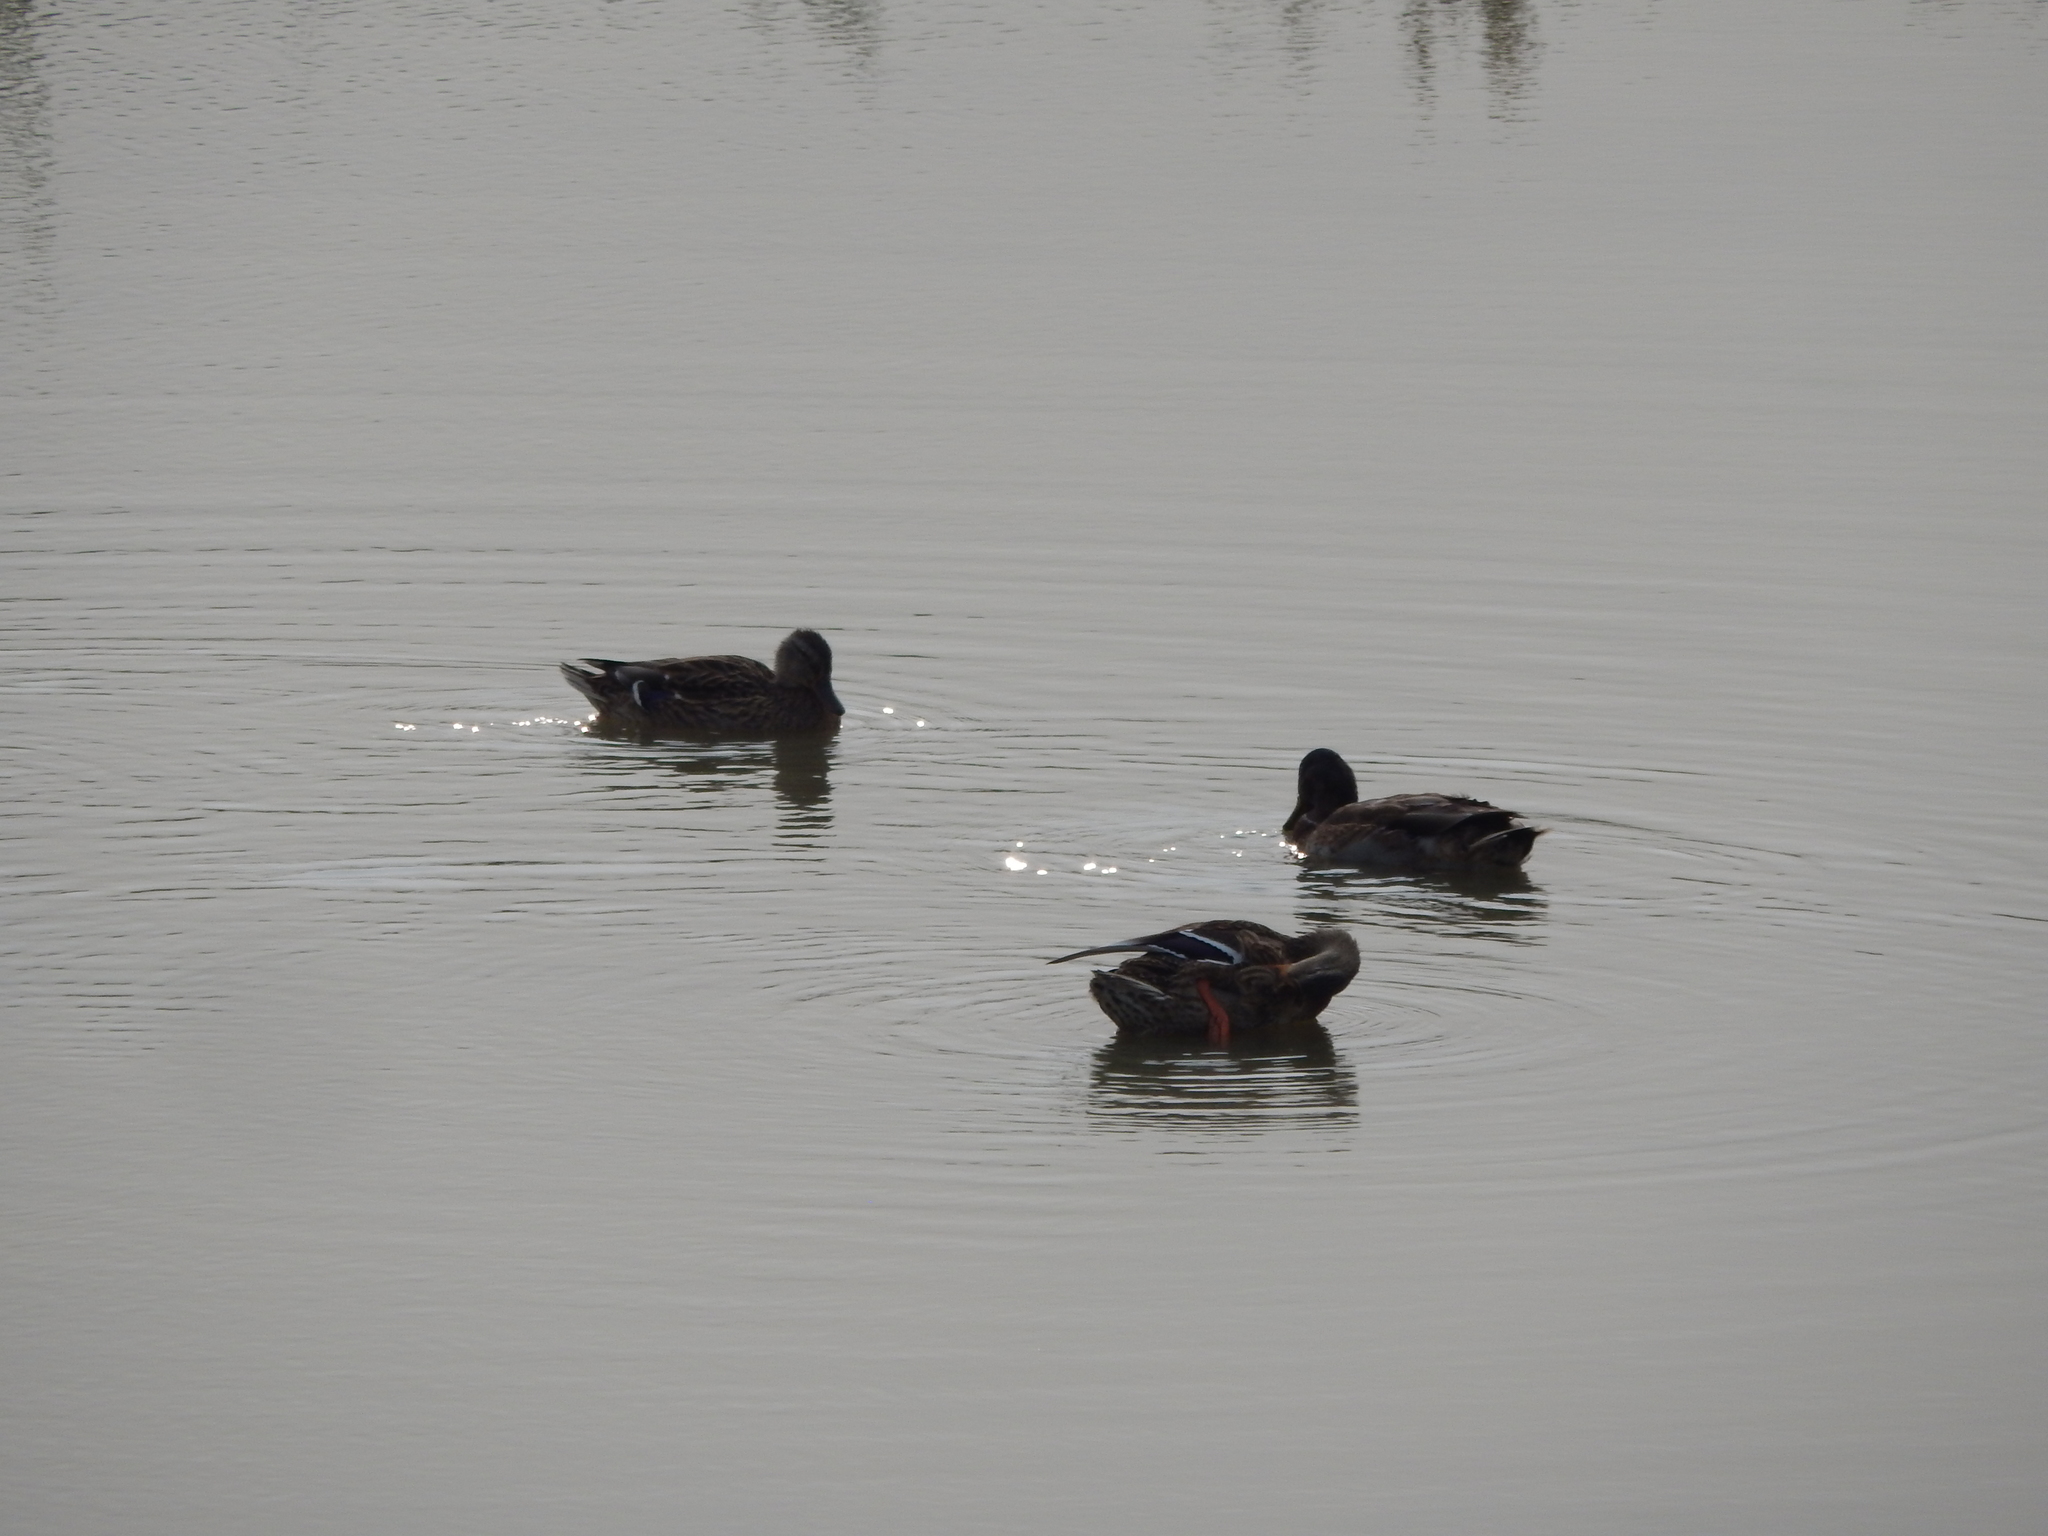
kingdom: Animalia
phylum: Chordata
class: Aves
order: Anseriformes
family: Anatidae
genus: Anas
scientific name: Anas platyrhynchos
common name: Mallard
